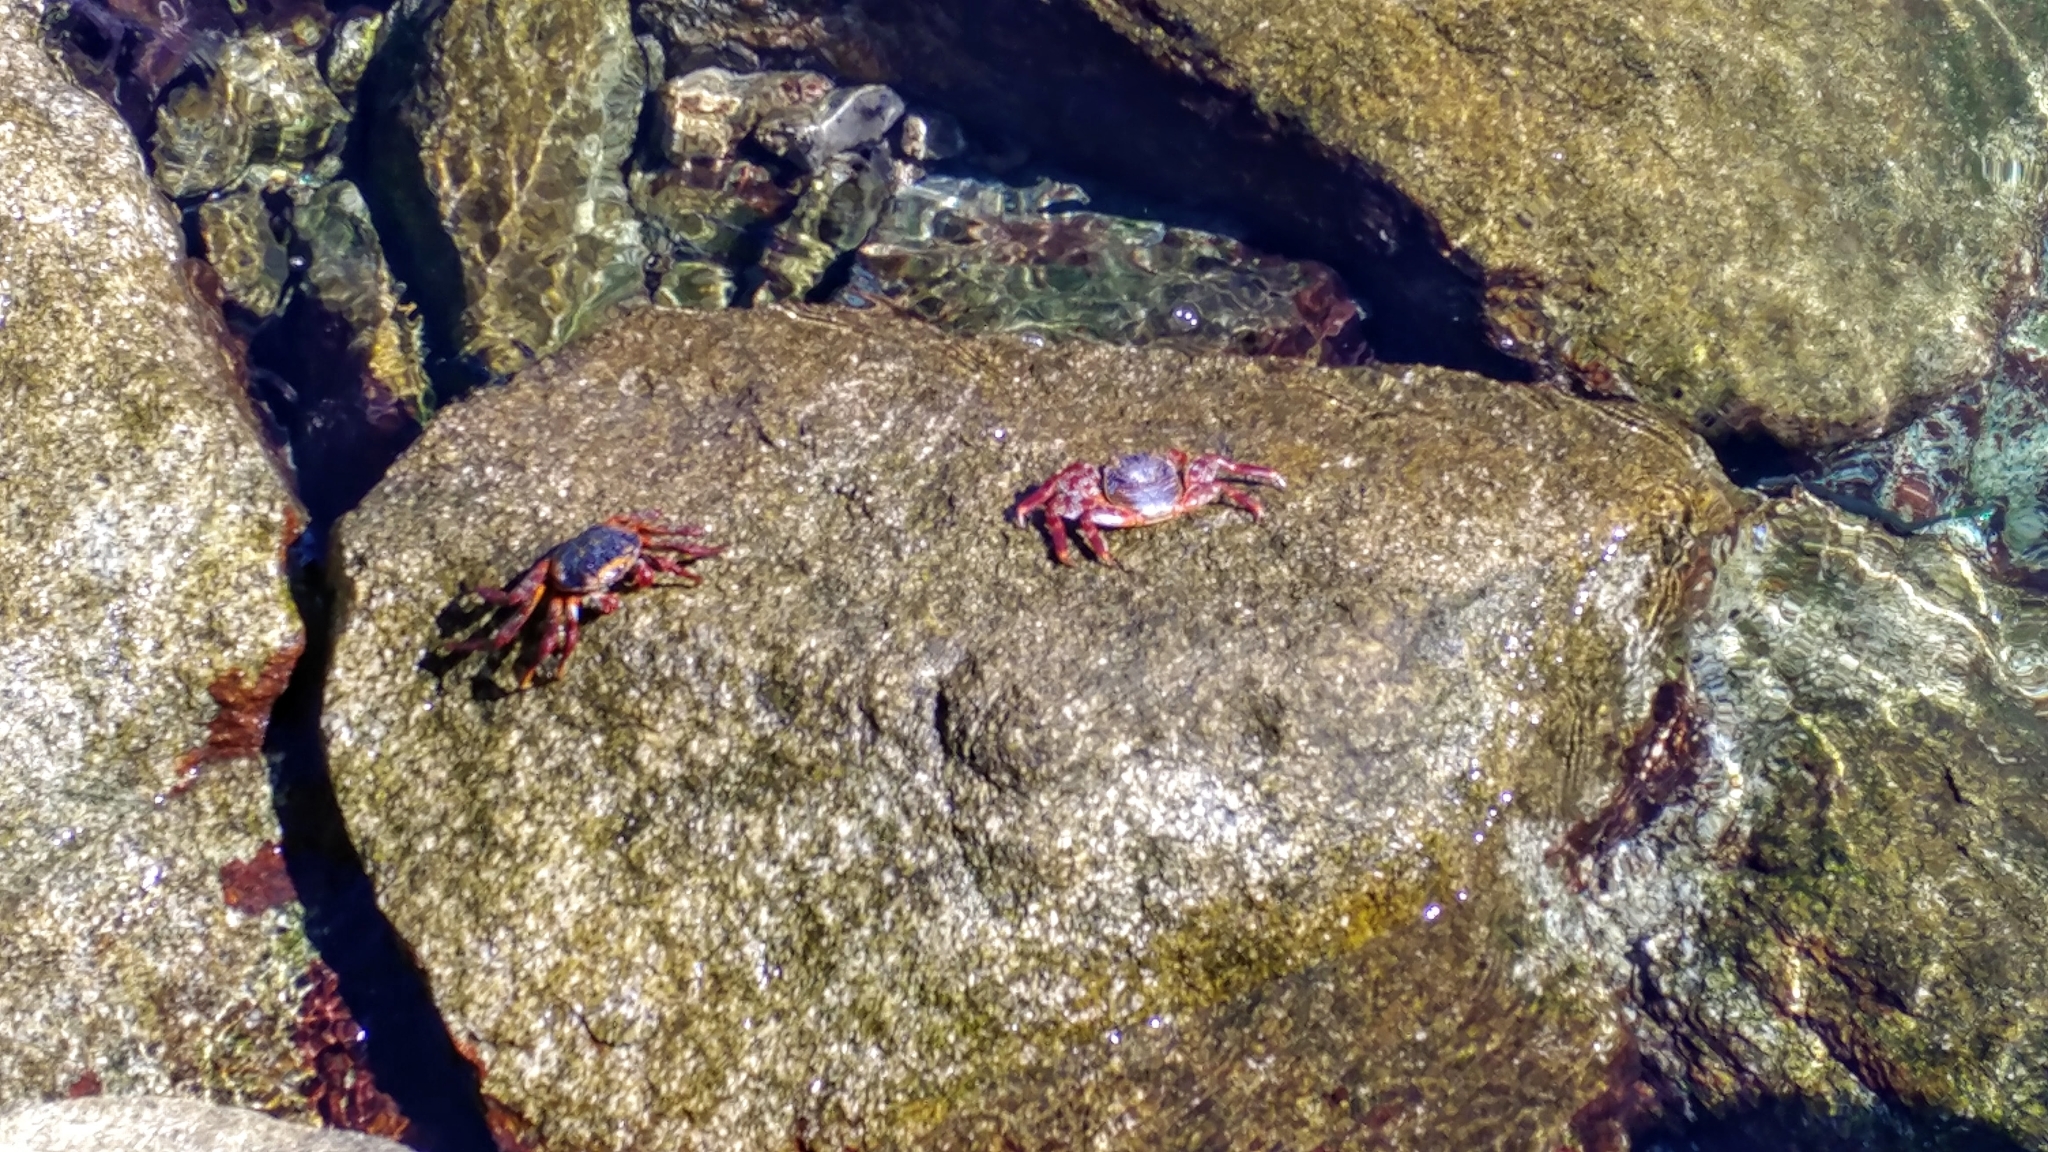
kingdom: Animalia
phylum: Arthropoda
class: Malacostraca
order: Decapoda
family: Grapsidae
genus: Grapsus
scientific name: Grapsus grapsus
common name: Sally lightfoot
